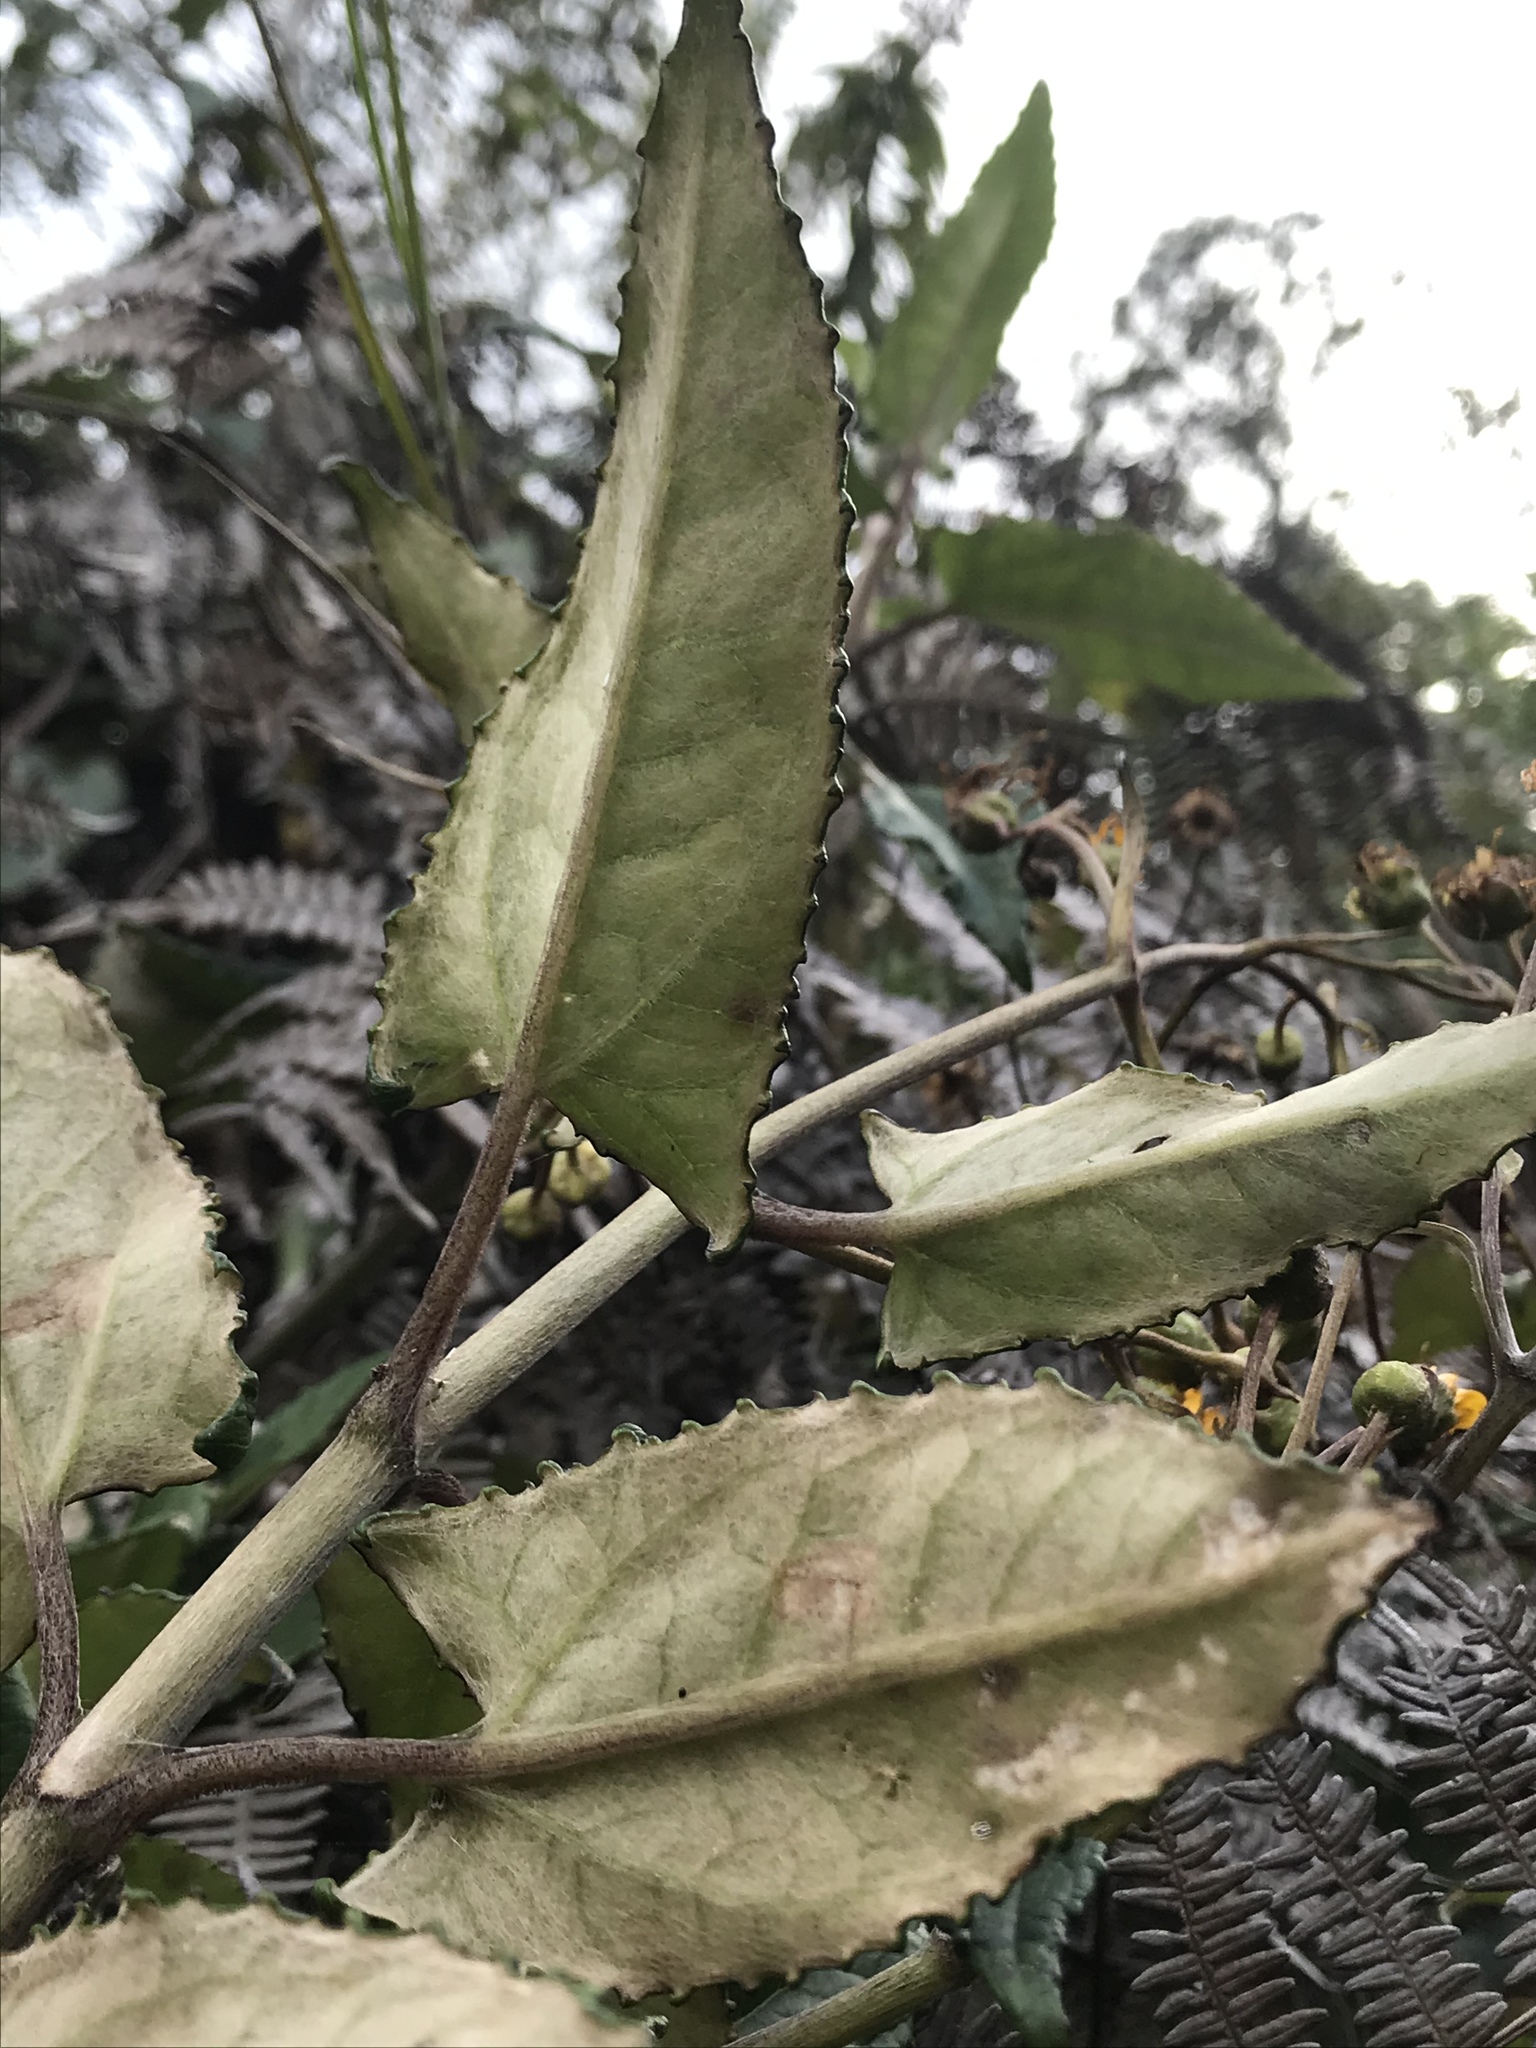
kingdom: Plantae
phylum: Tracheophyta
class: Magnoliopsida
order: Asterales
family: Asteraceae
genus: Munnozia
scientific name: Munnozia senecionidis
